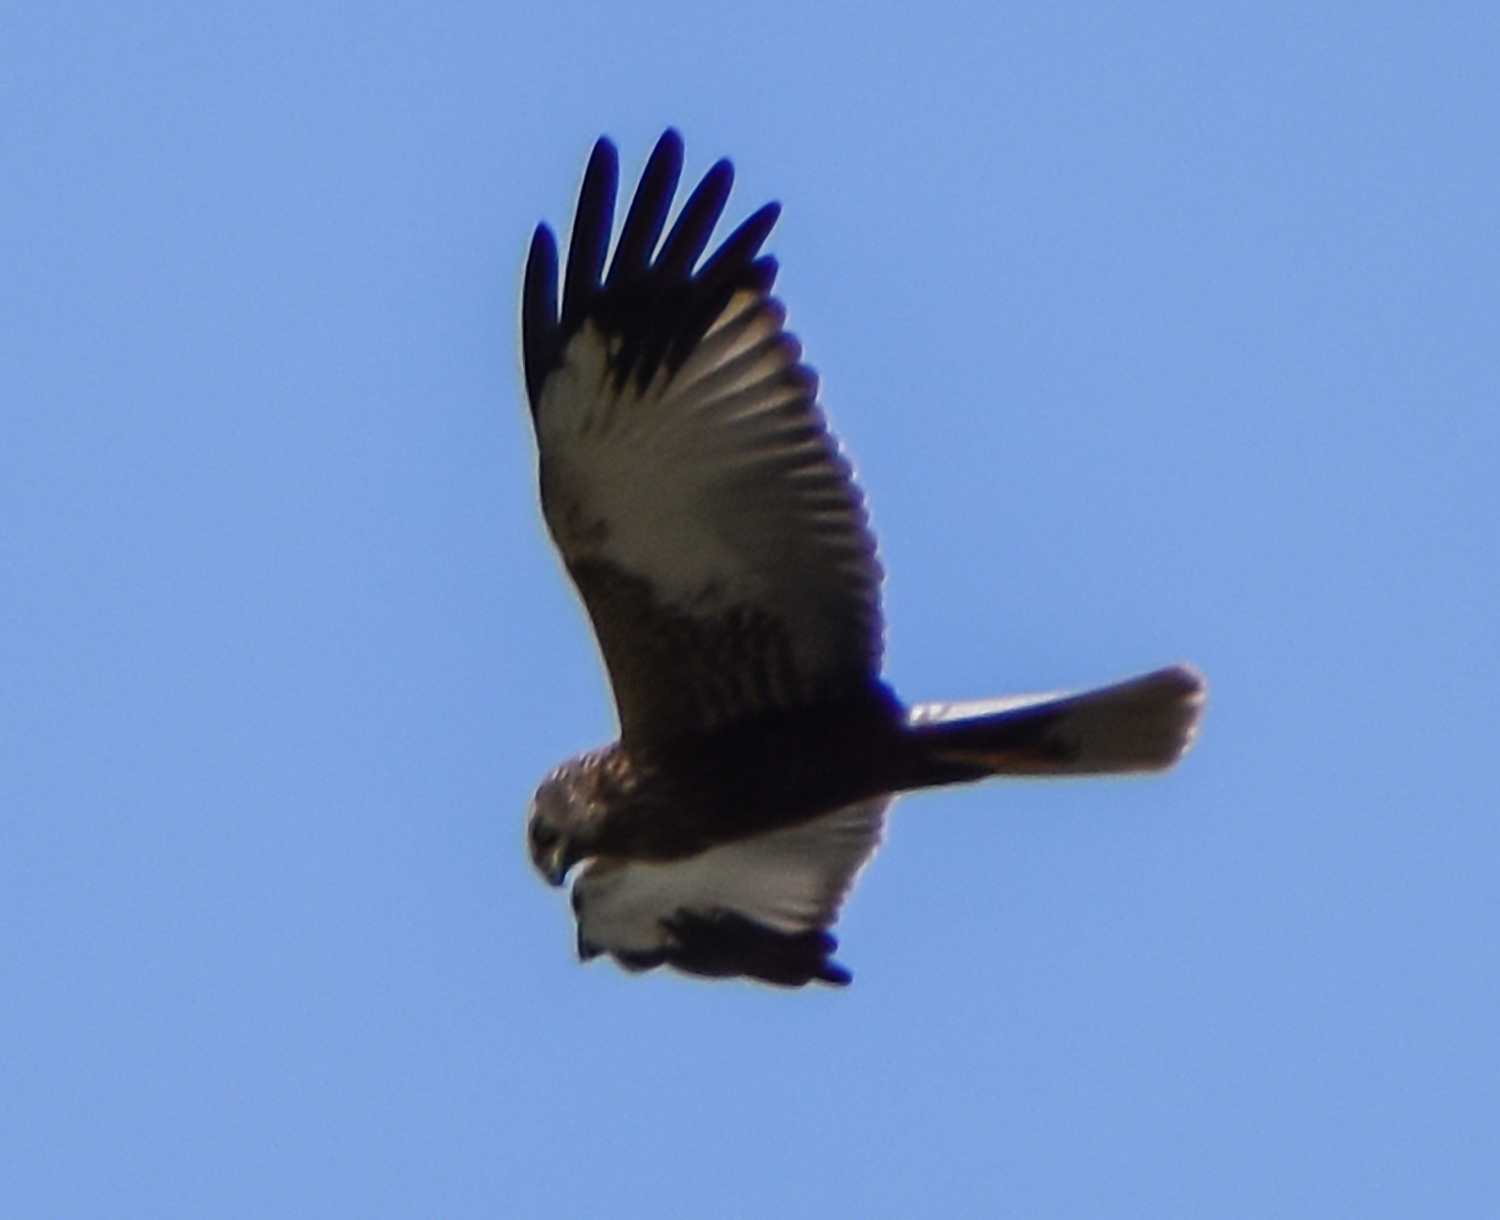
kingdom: Animalia
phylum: Chordata
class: Aves
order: Accipitriformes
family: Accipitridae
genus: Circus
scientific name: Circus aeruginosus
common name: Western marsh harrier
